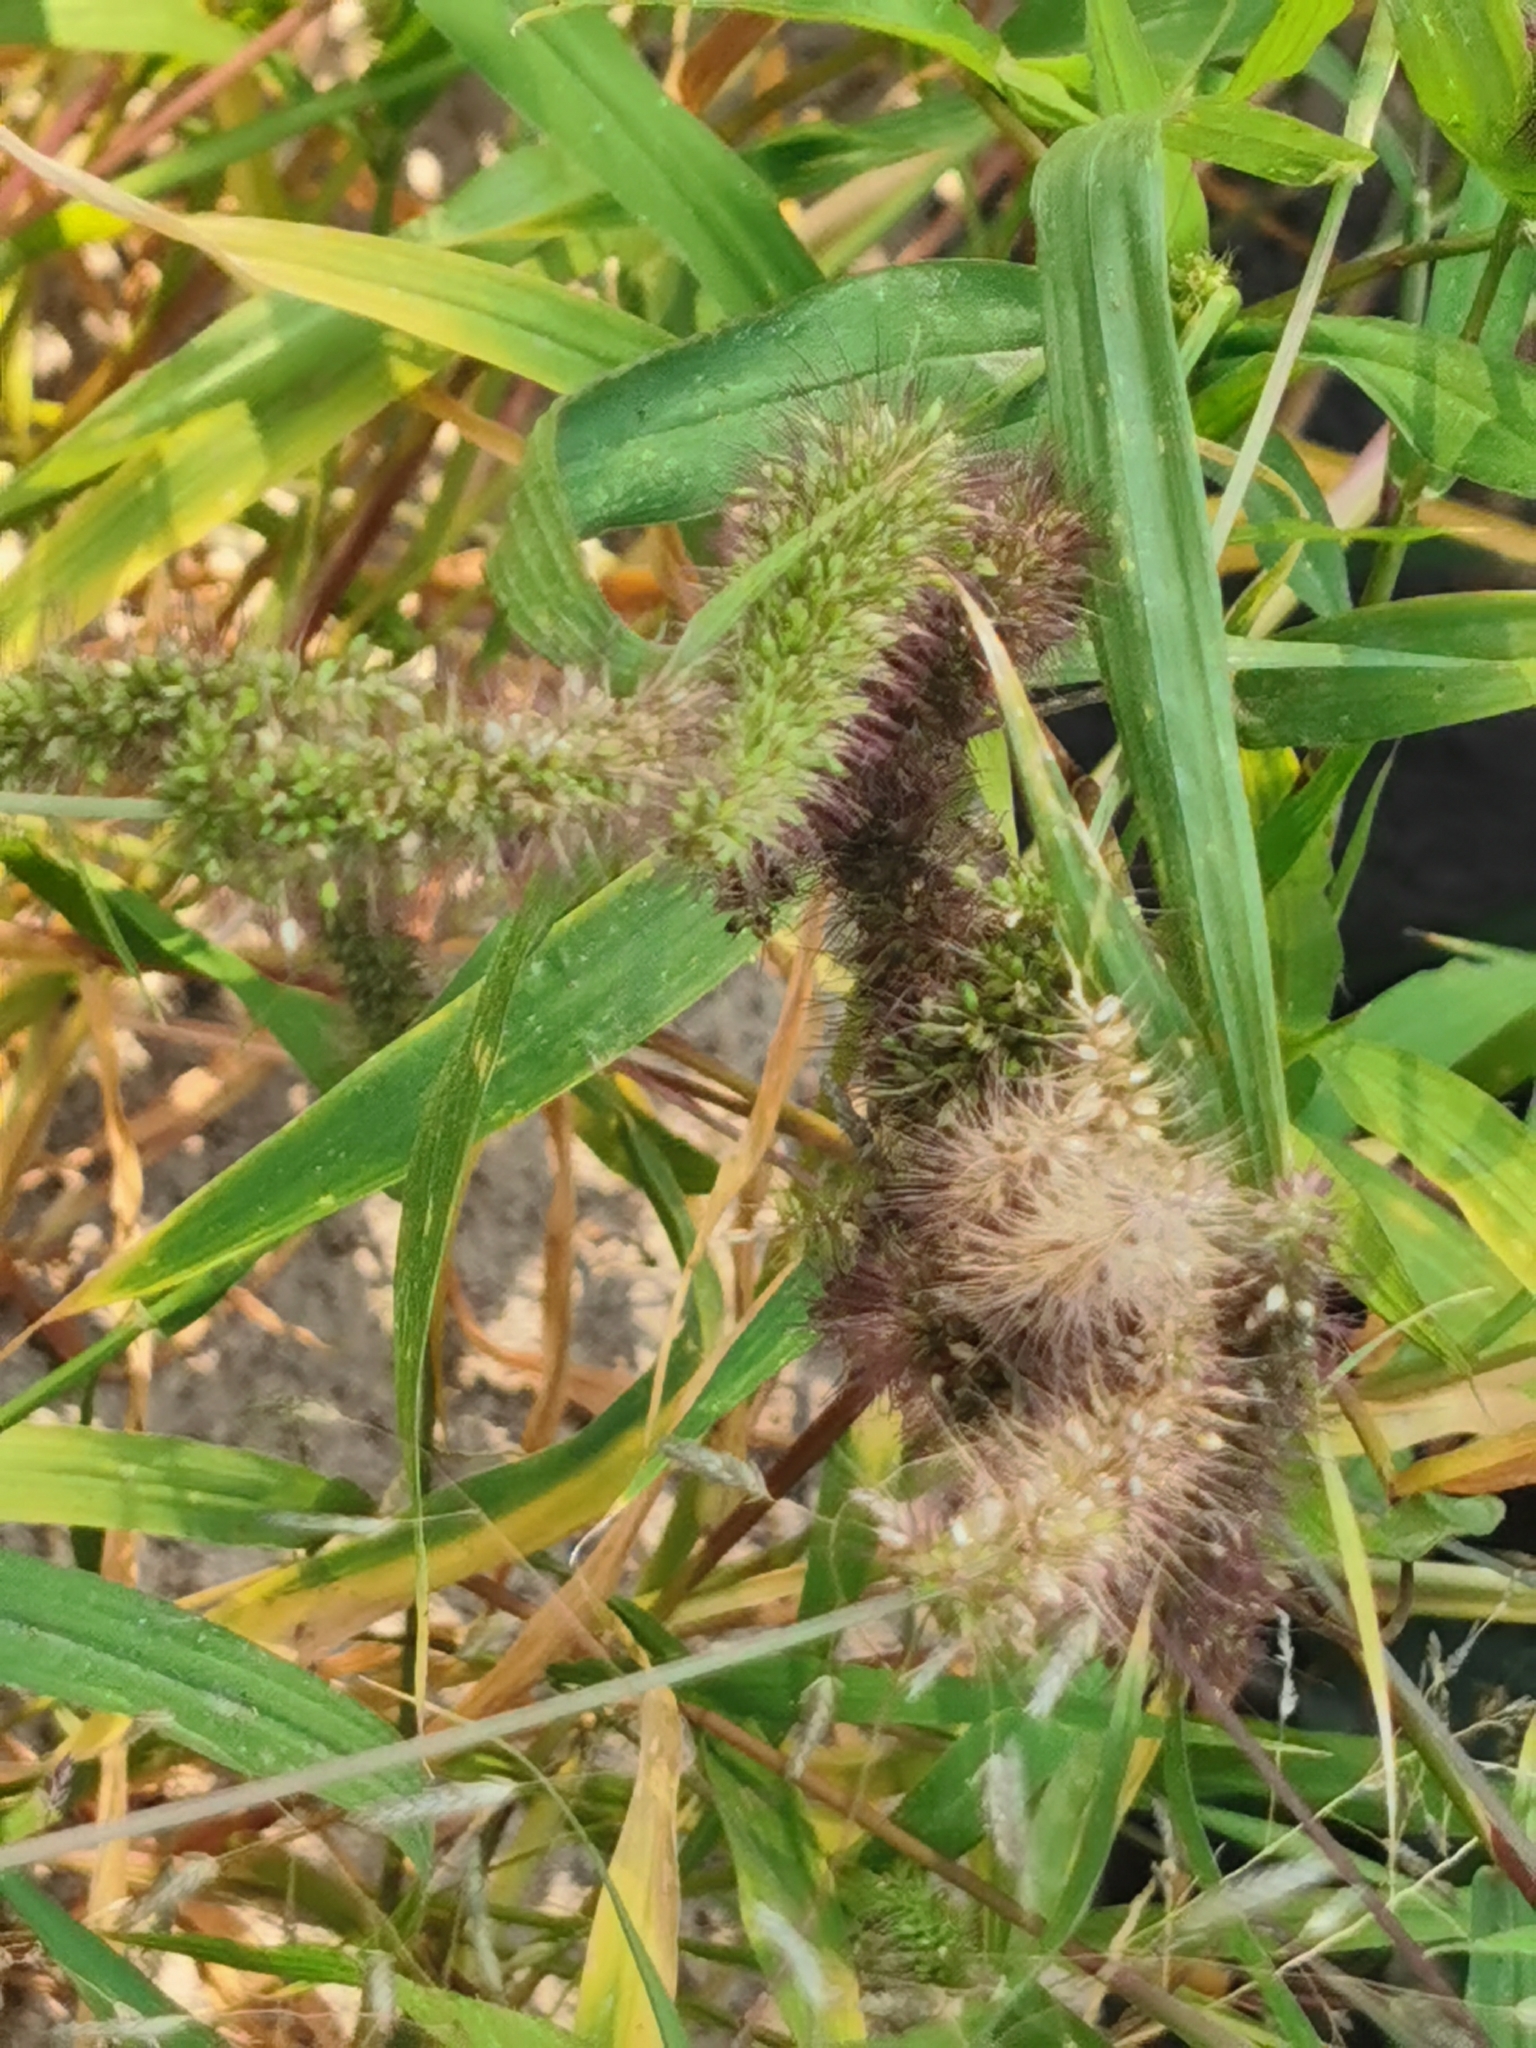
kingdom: Plantae
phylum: Tracheophyta
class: Liliopsida
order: Poales
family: Poaceae
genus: Setaria
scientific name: Setaria adhaerens
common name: Adherent bristle-grass
